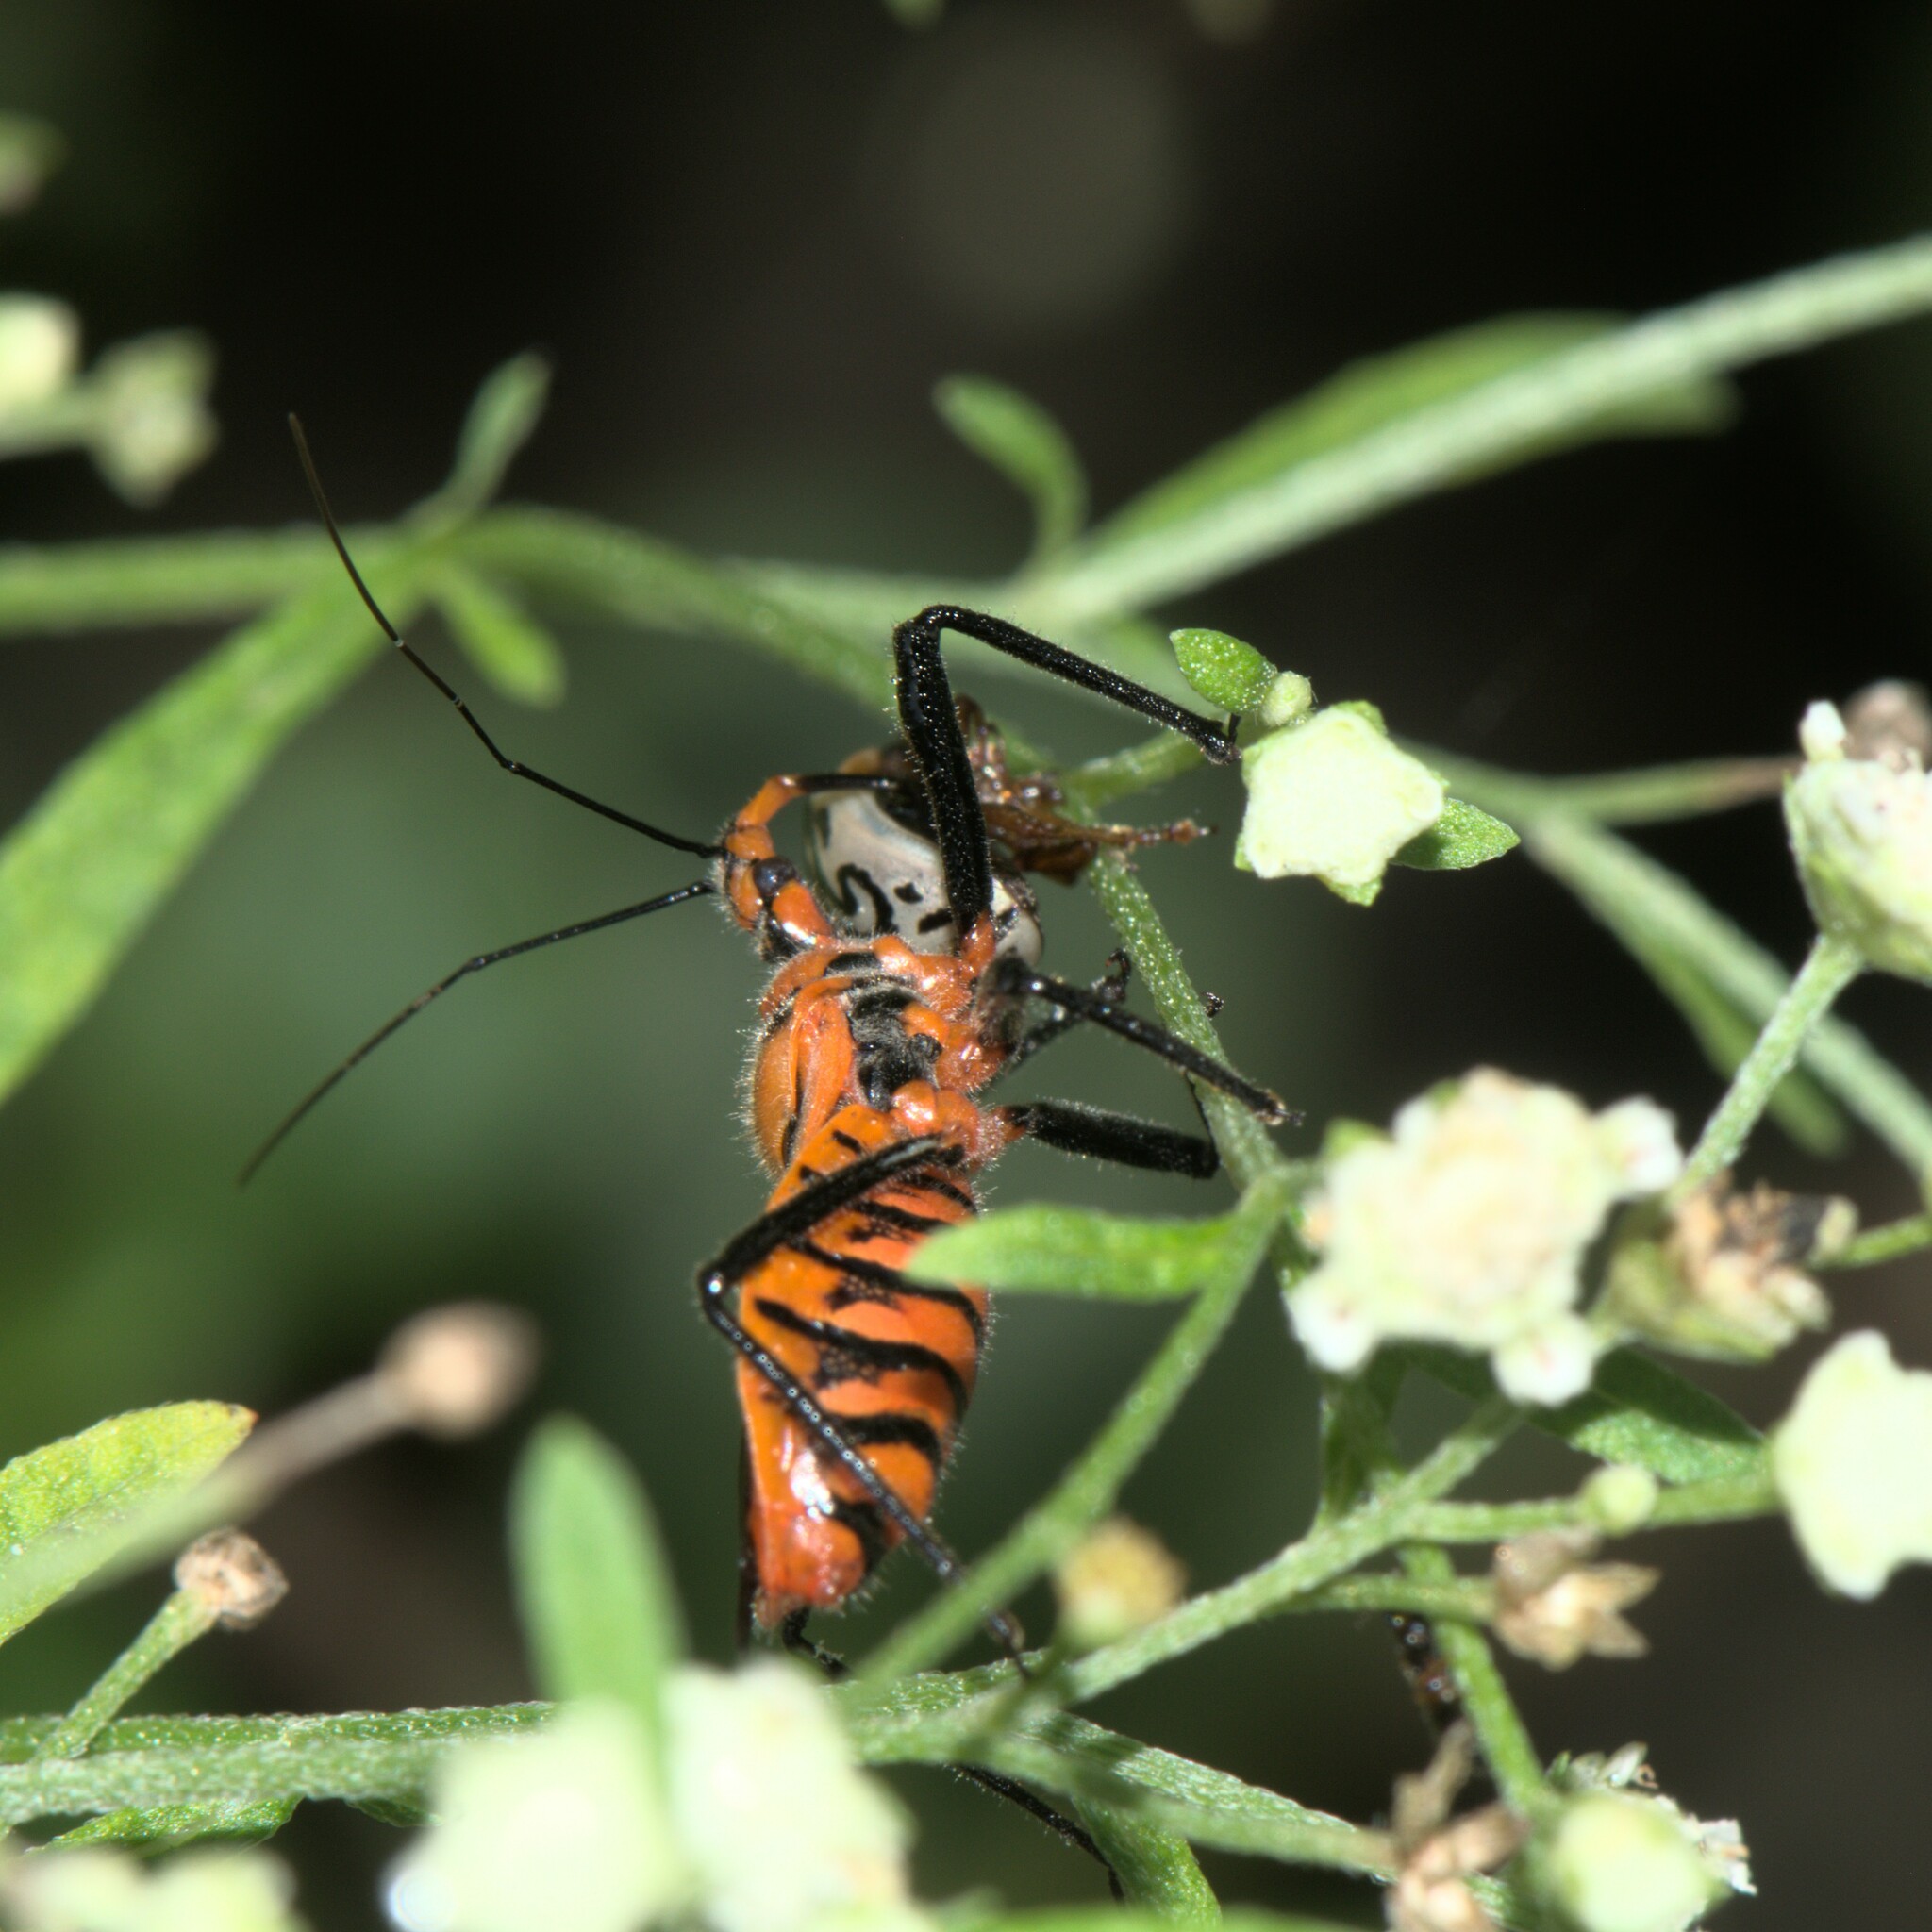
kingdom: Animalia
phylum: Arthropoda
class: Insecta
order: Coleoptera
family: Chrysomelidae
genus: Calligrapha
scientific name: Calligrapha
